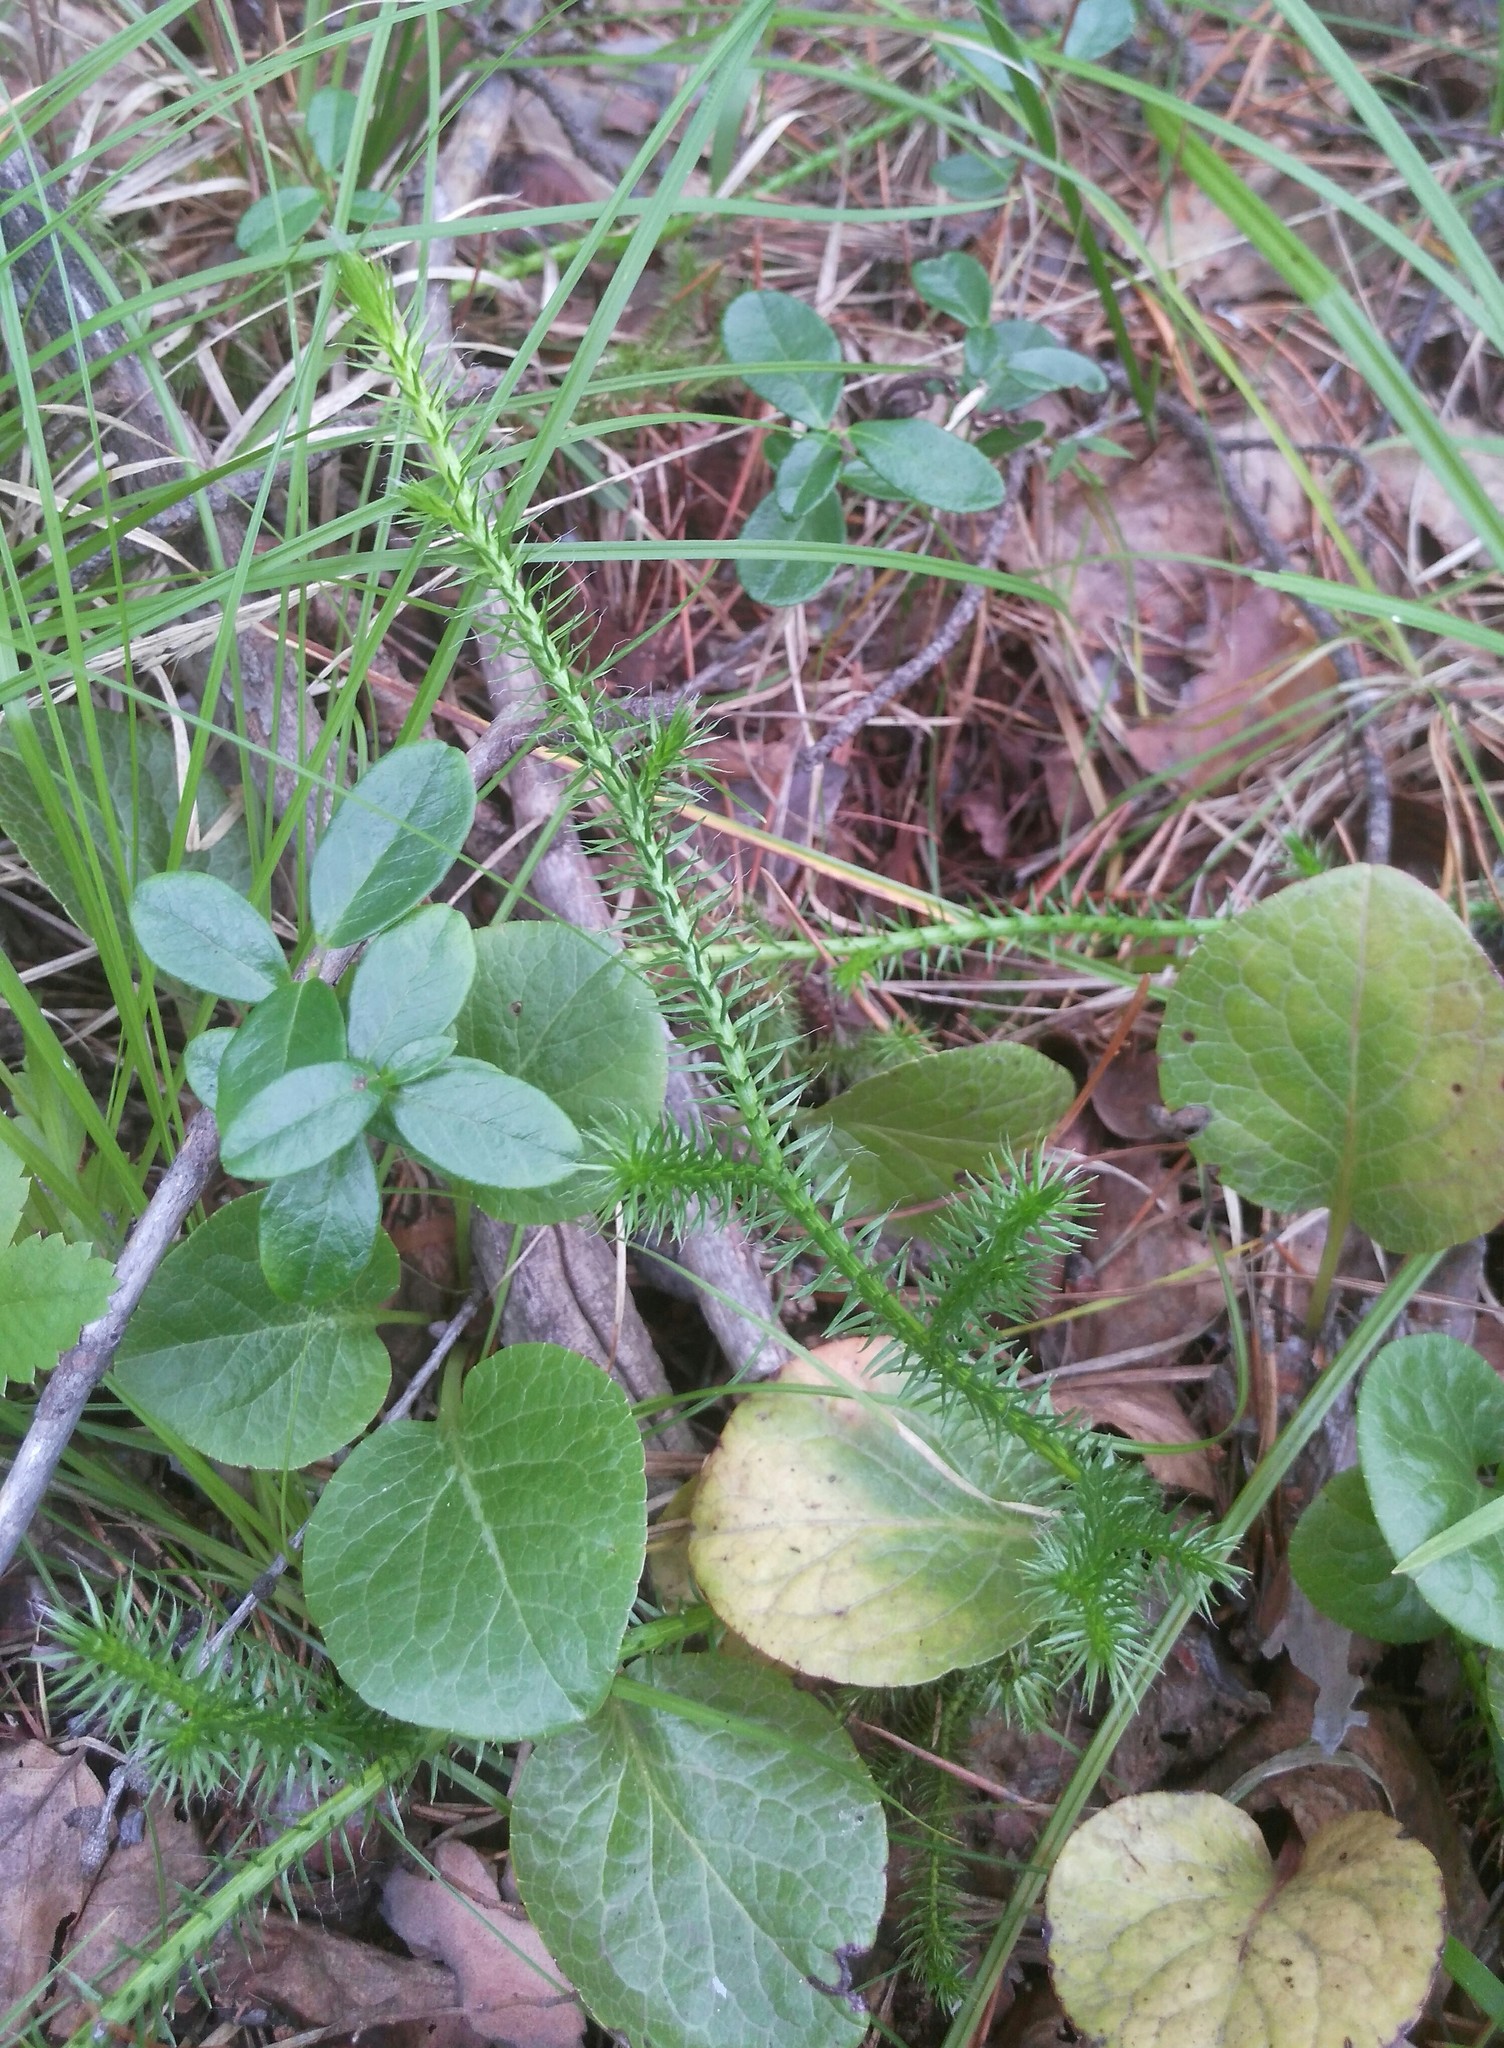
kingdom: Plantae
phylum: Tracheophyta
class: Lycopodiopsida
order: Lycopodiales
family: Lycopodiaceae
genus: Lycopodium
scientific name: Lycopodium clavatum
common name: Stag's-horn clubmoss
